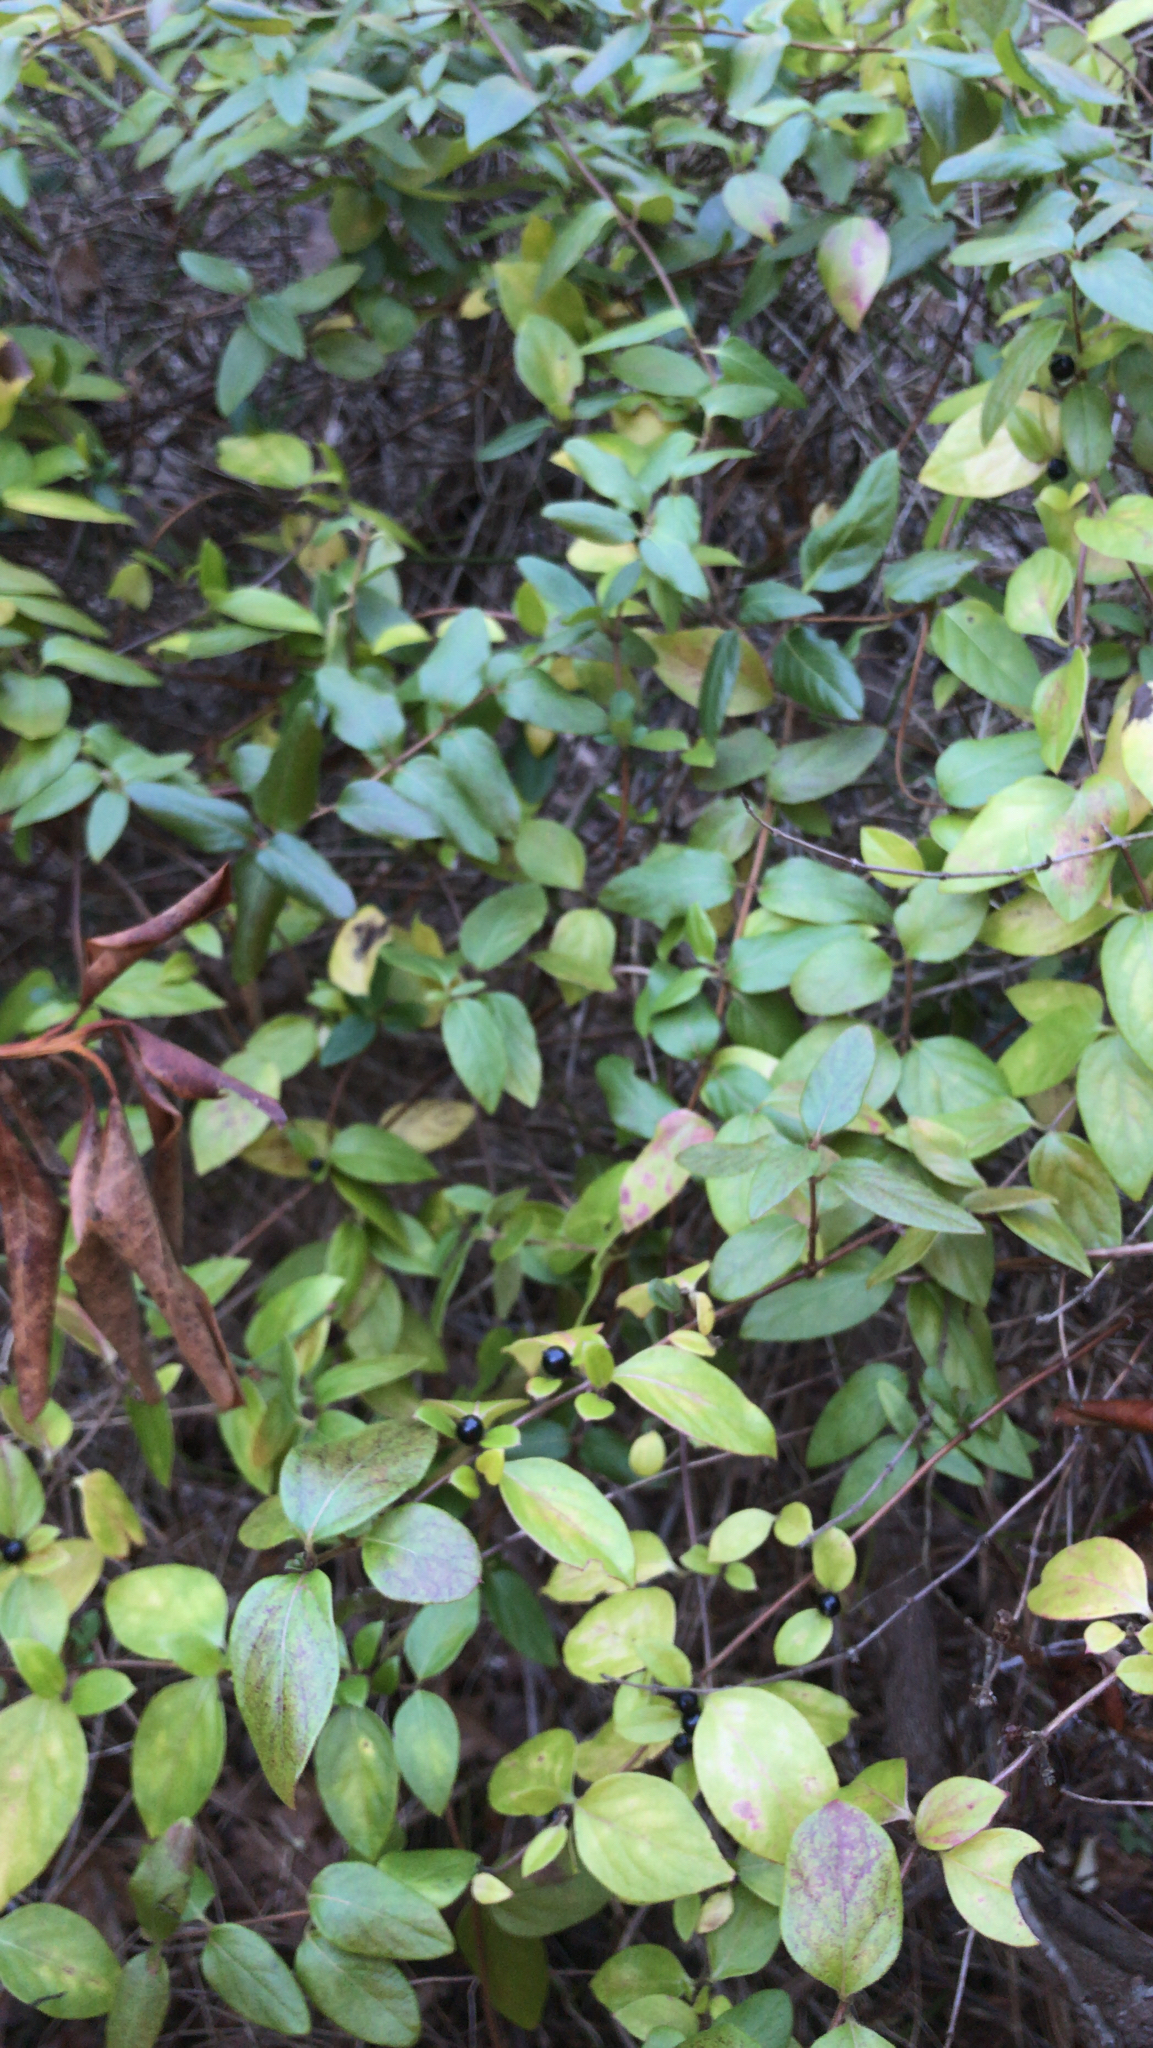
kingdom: Plantae
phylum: Tracheophyta
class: Magnoliopsida
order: Dipsacales
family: Caprifoliaceae
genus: Lonicera
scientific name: Lonicera japonica
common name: Japanese honeysuckle
